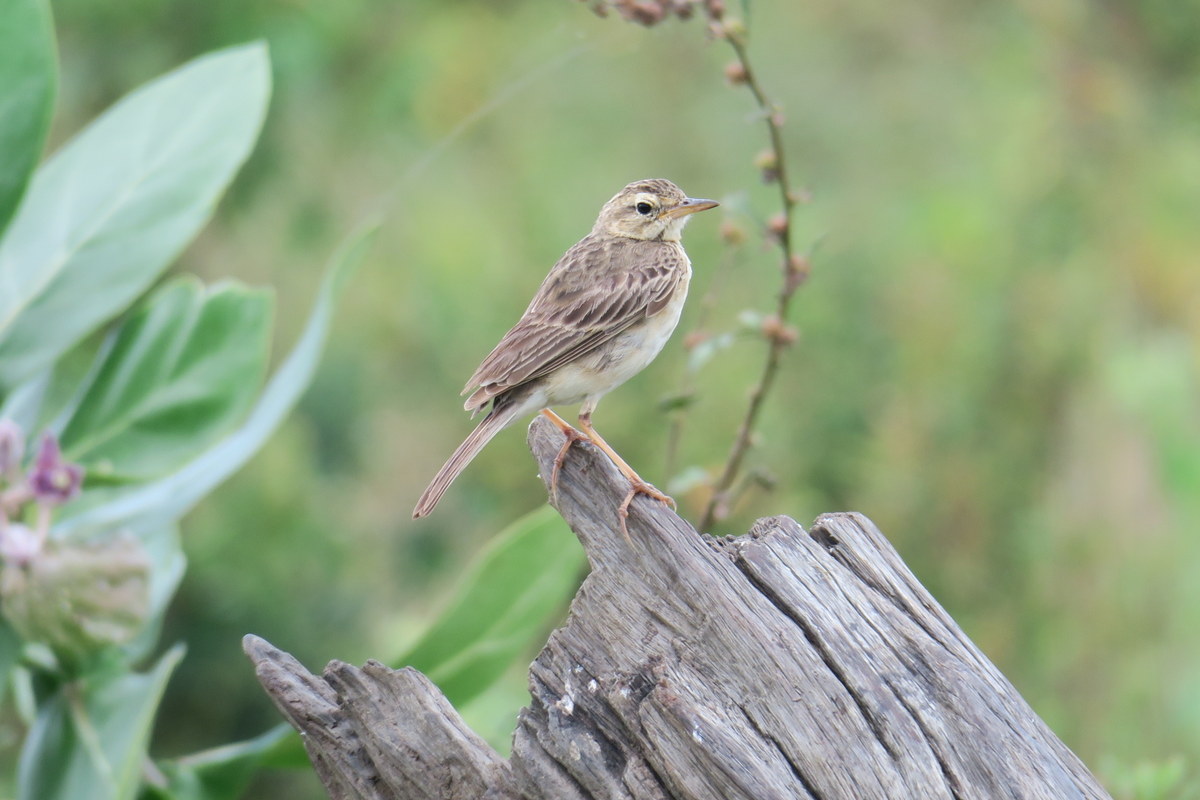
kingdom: Animalia
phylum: Chordata
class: Aves
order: Passeriformes
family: Motacillidae
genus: Anthus
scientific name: Anthus rufulus
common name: Paddyfield pipit
